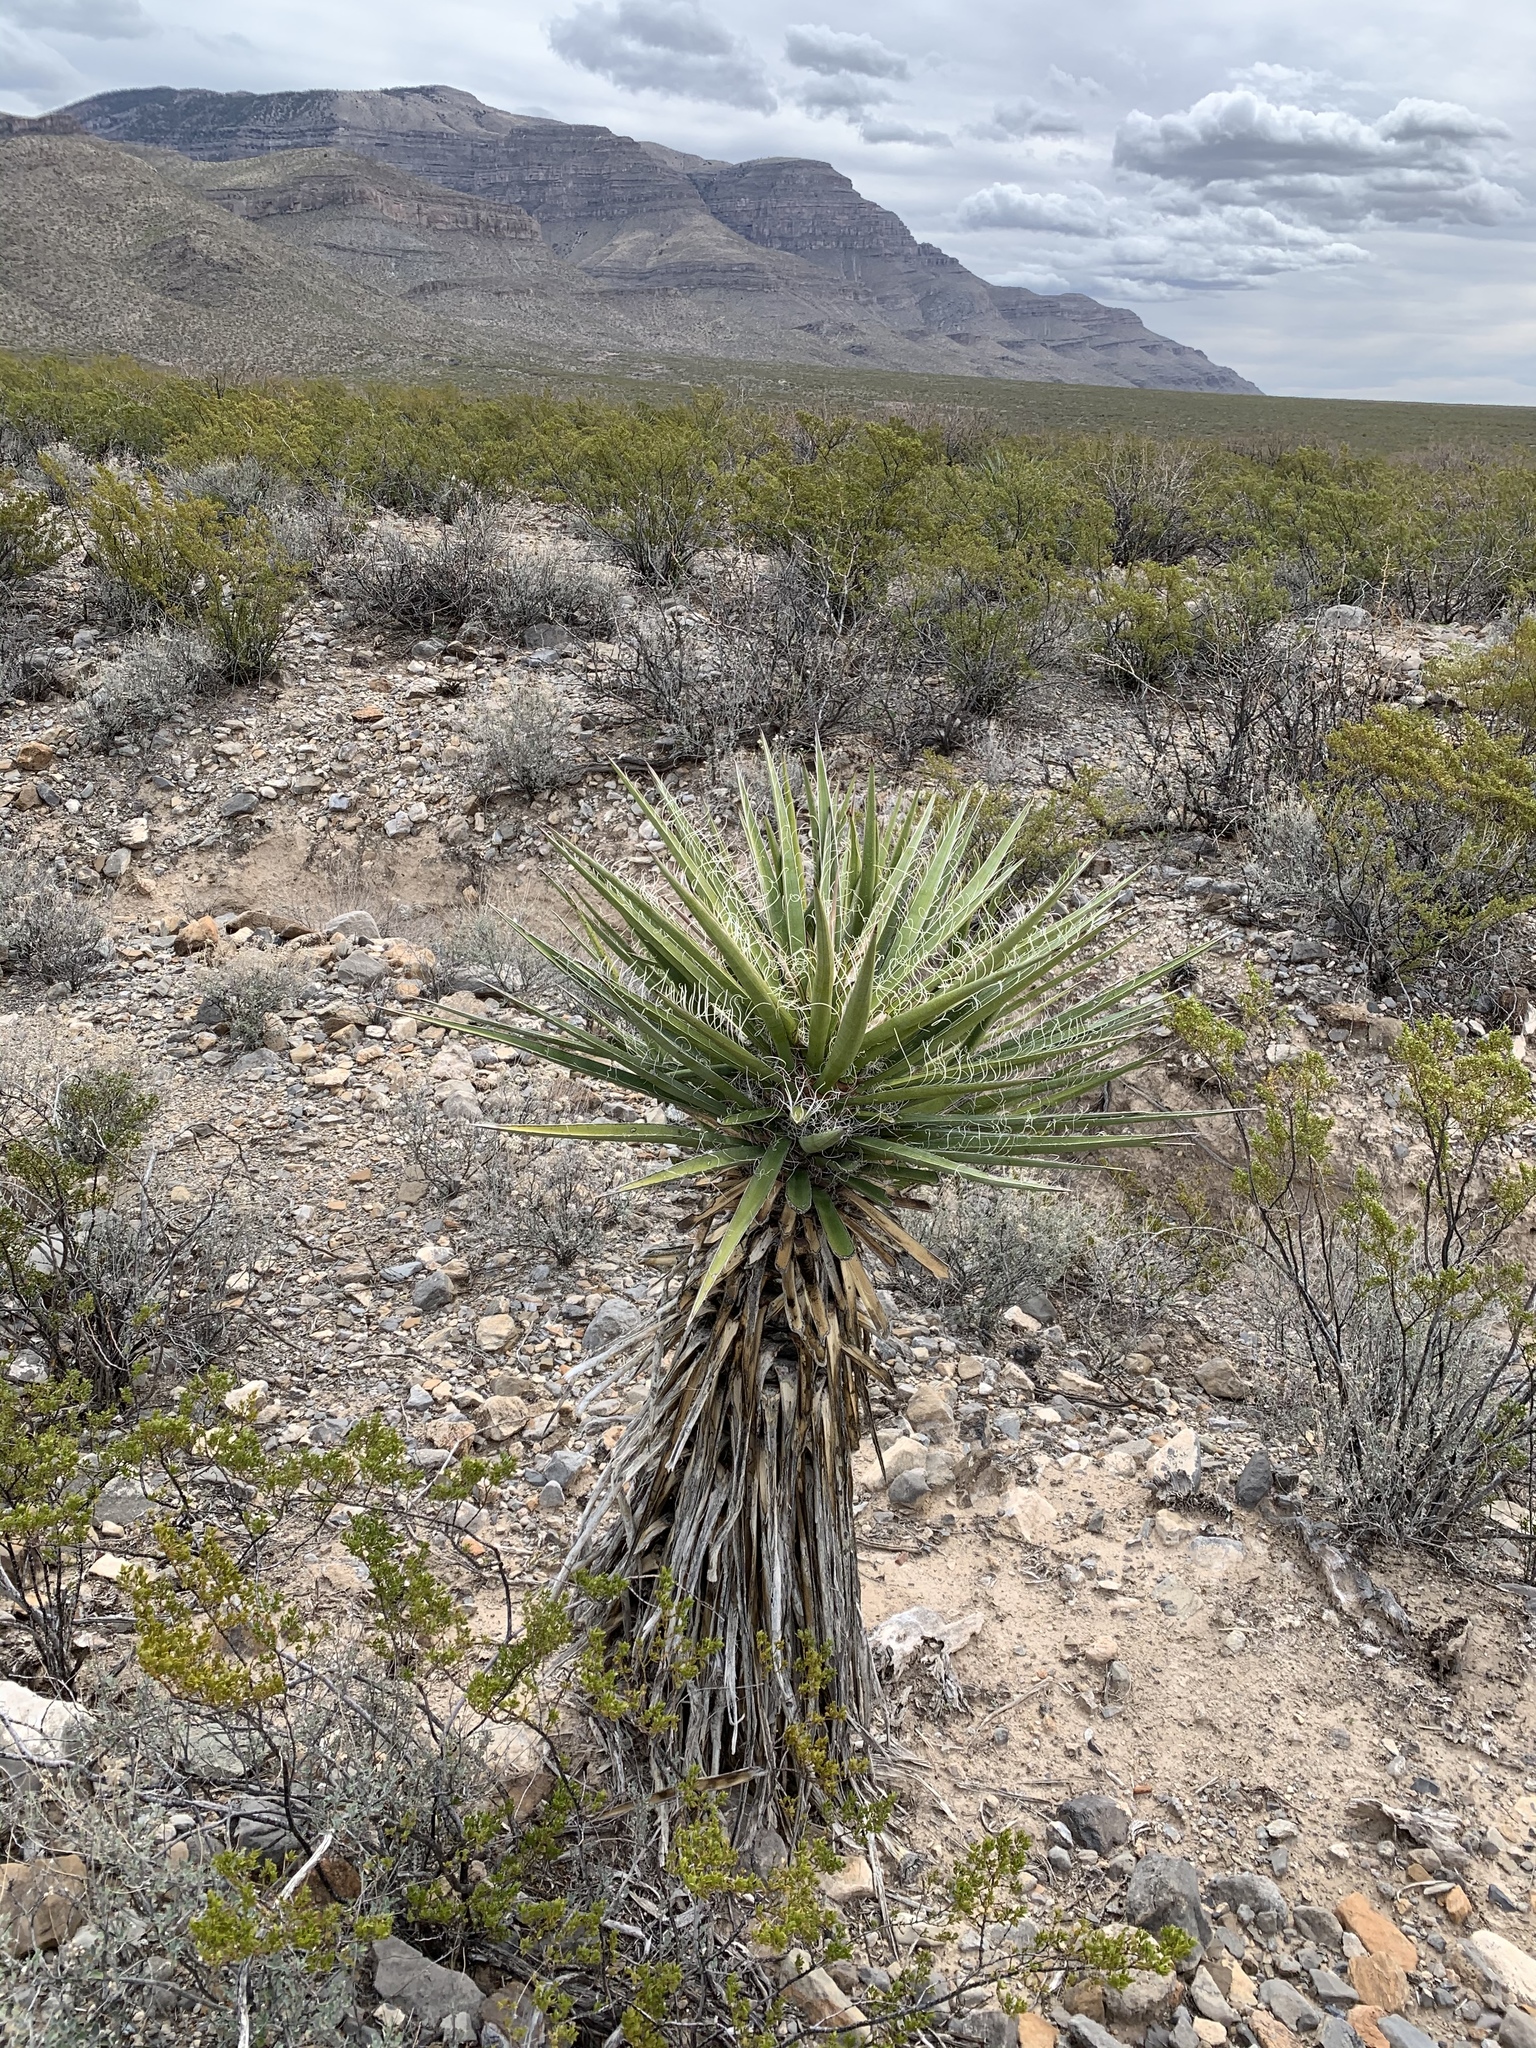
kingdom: Plantae
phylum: Tracheophyta
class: Liliopsida
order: Asparagales
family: Asparagaceae
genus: Yucca
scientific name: Yucca treculiana
